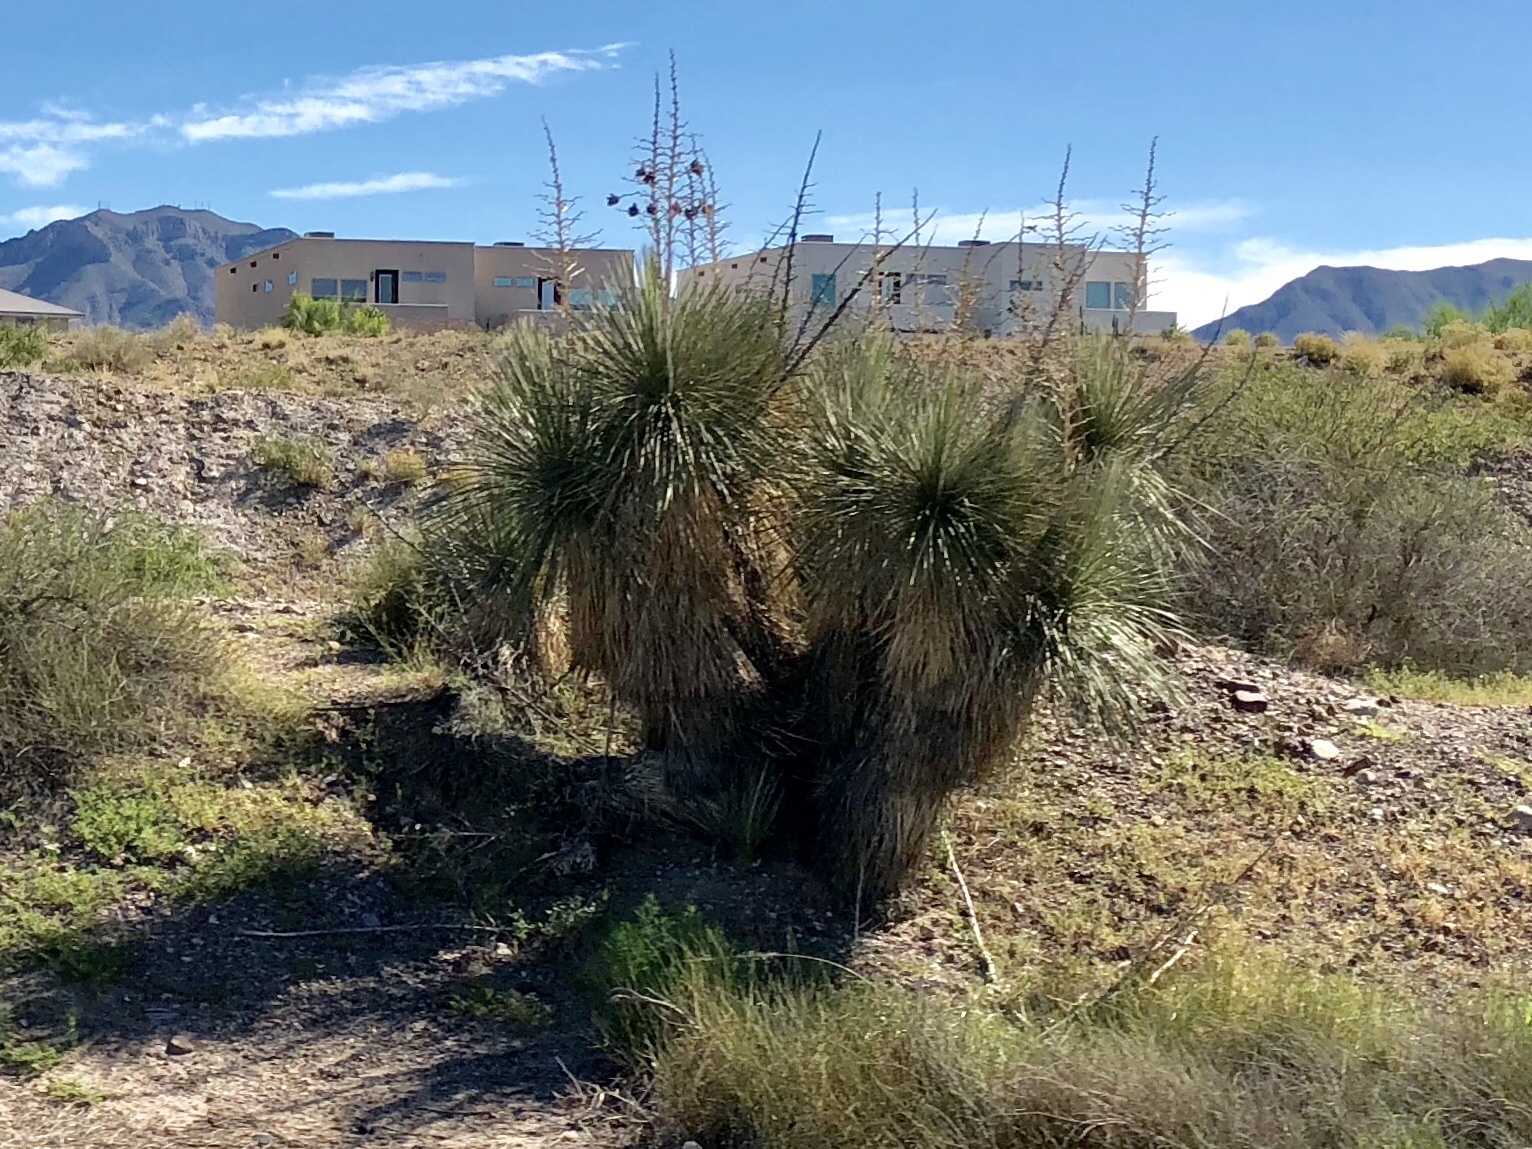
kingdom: Plantae
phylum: Tracheophyta
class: Liliopsida
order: Asparagales
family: Asparagaceae
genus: Yucca
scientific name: Yucca elata
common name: Palmella
